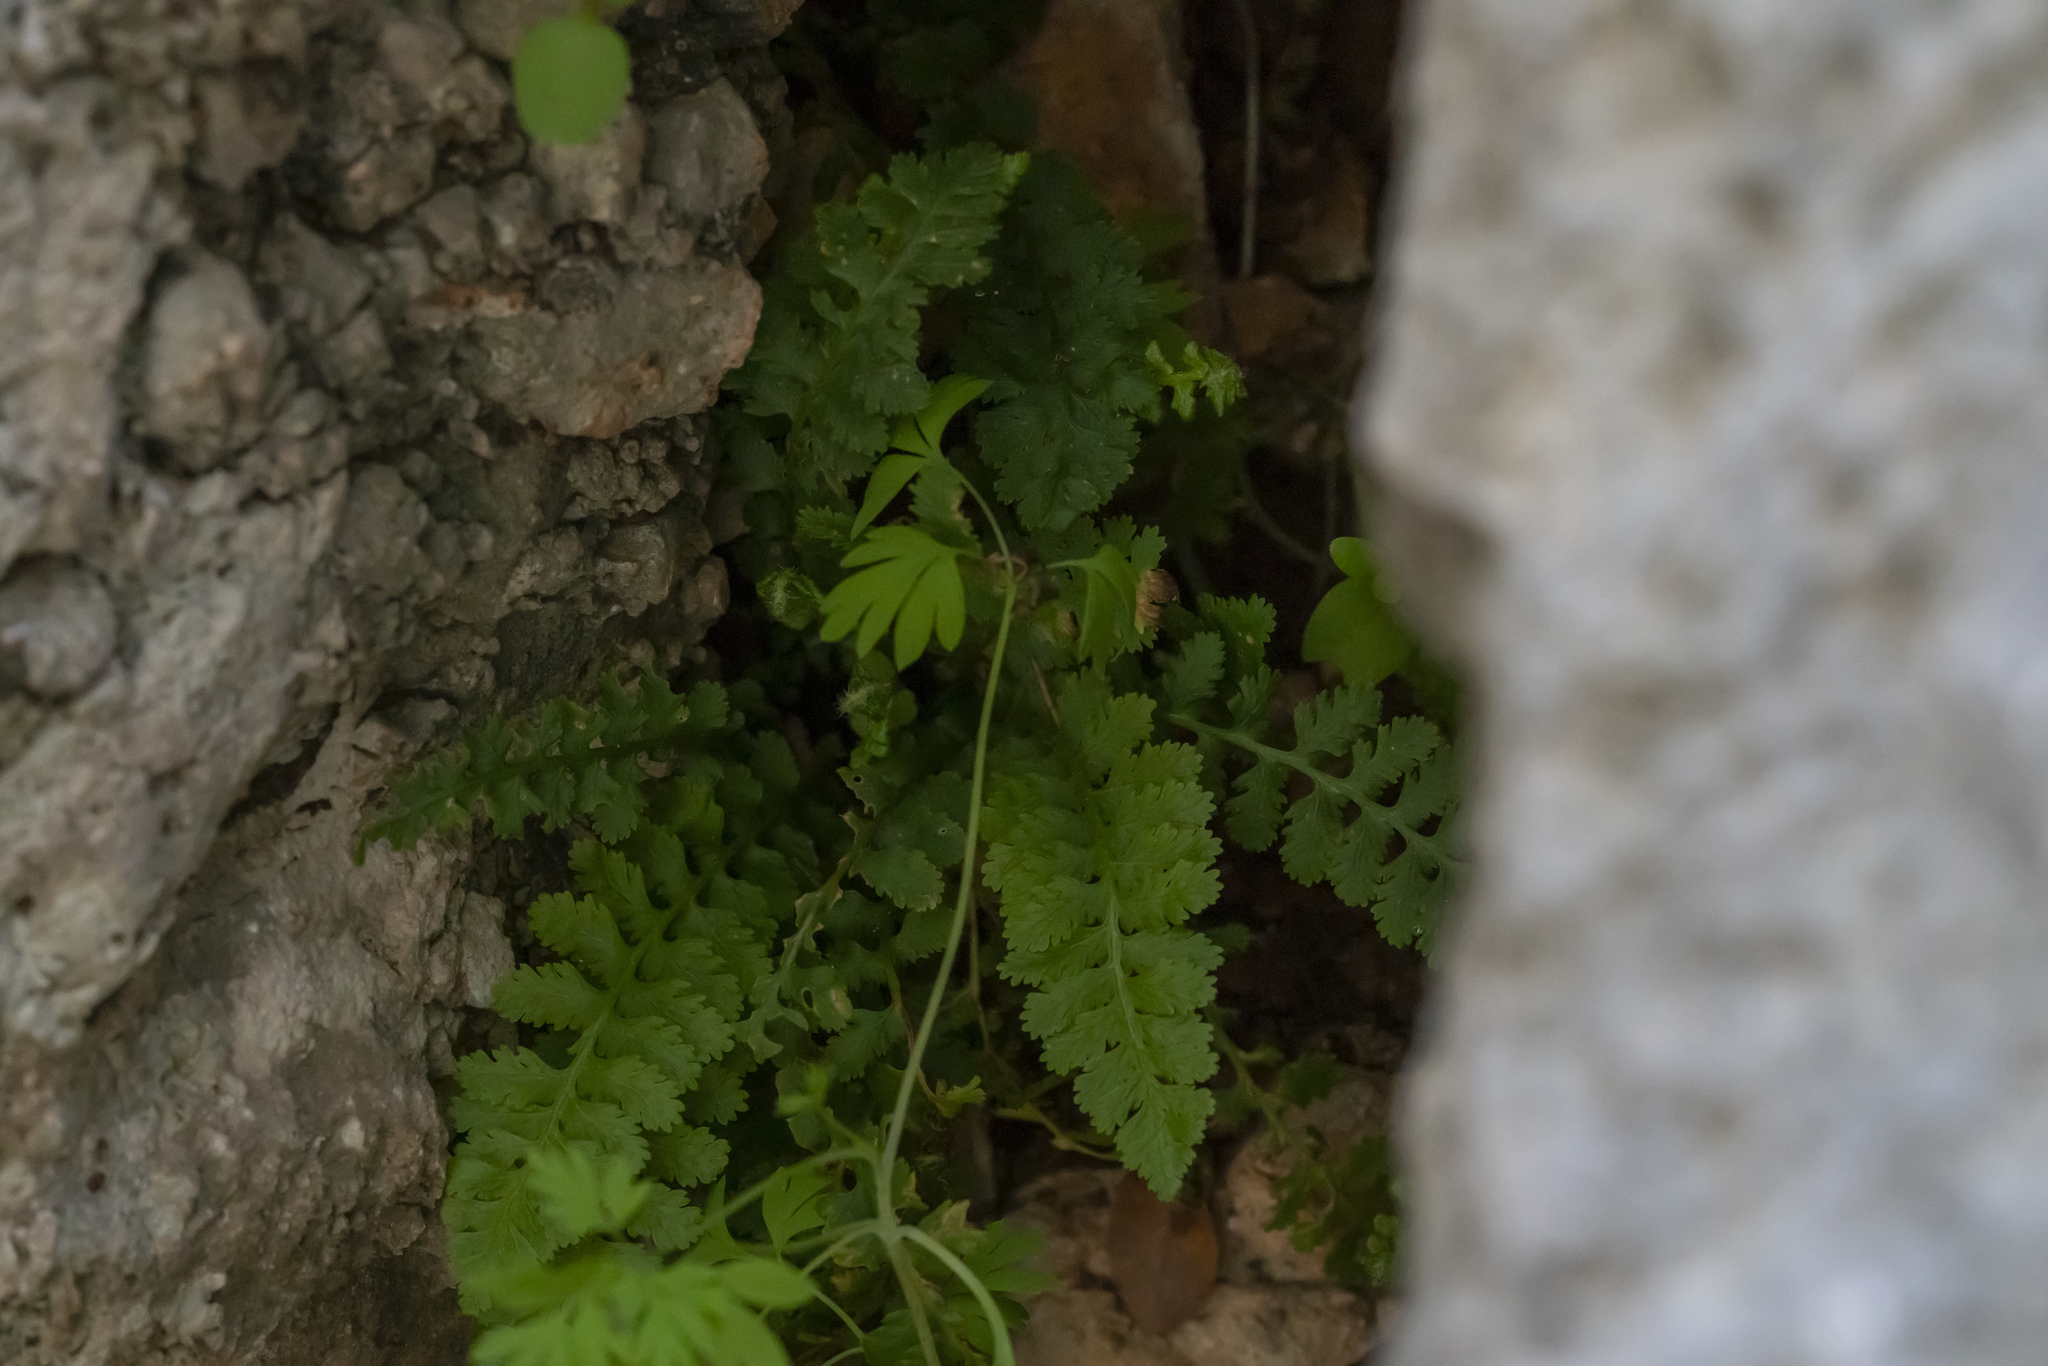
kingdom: Plantae
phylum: Tracheophyta
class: Polypodiopsida
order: Polypodiales
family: Aspleniaceae
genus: Asplenium
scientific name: Asplenium bourgaei
